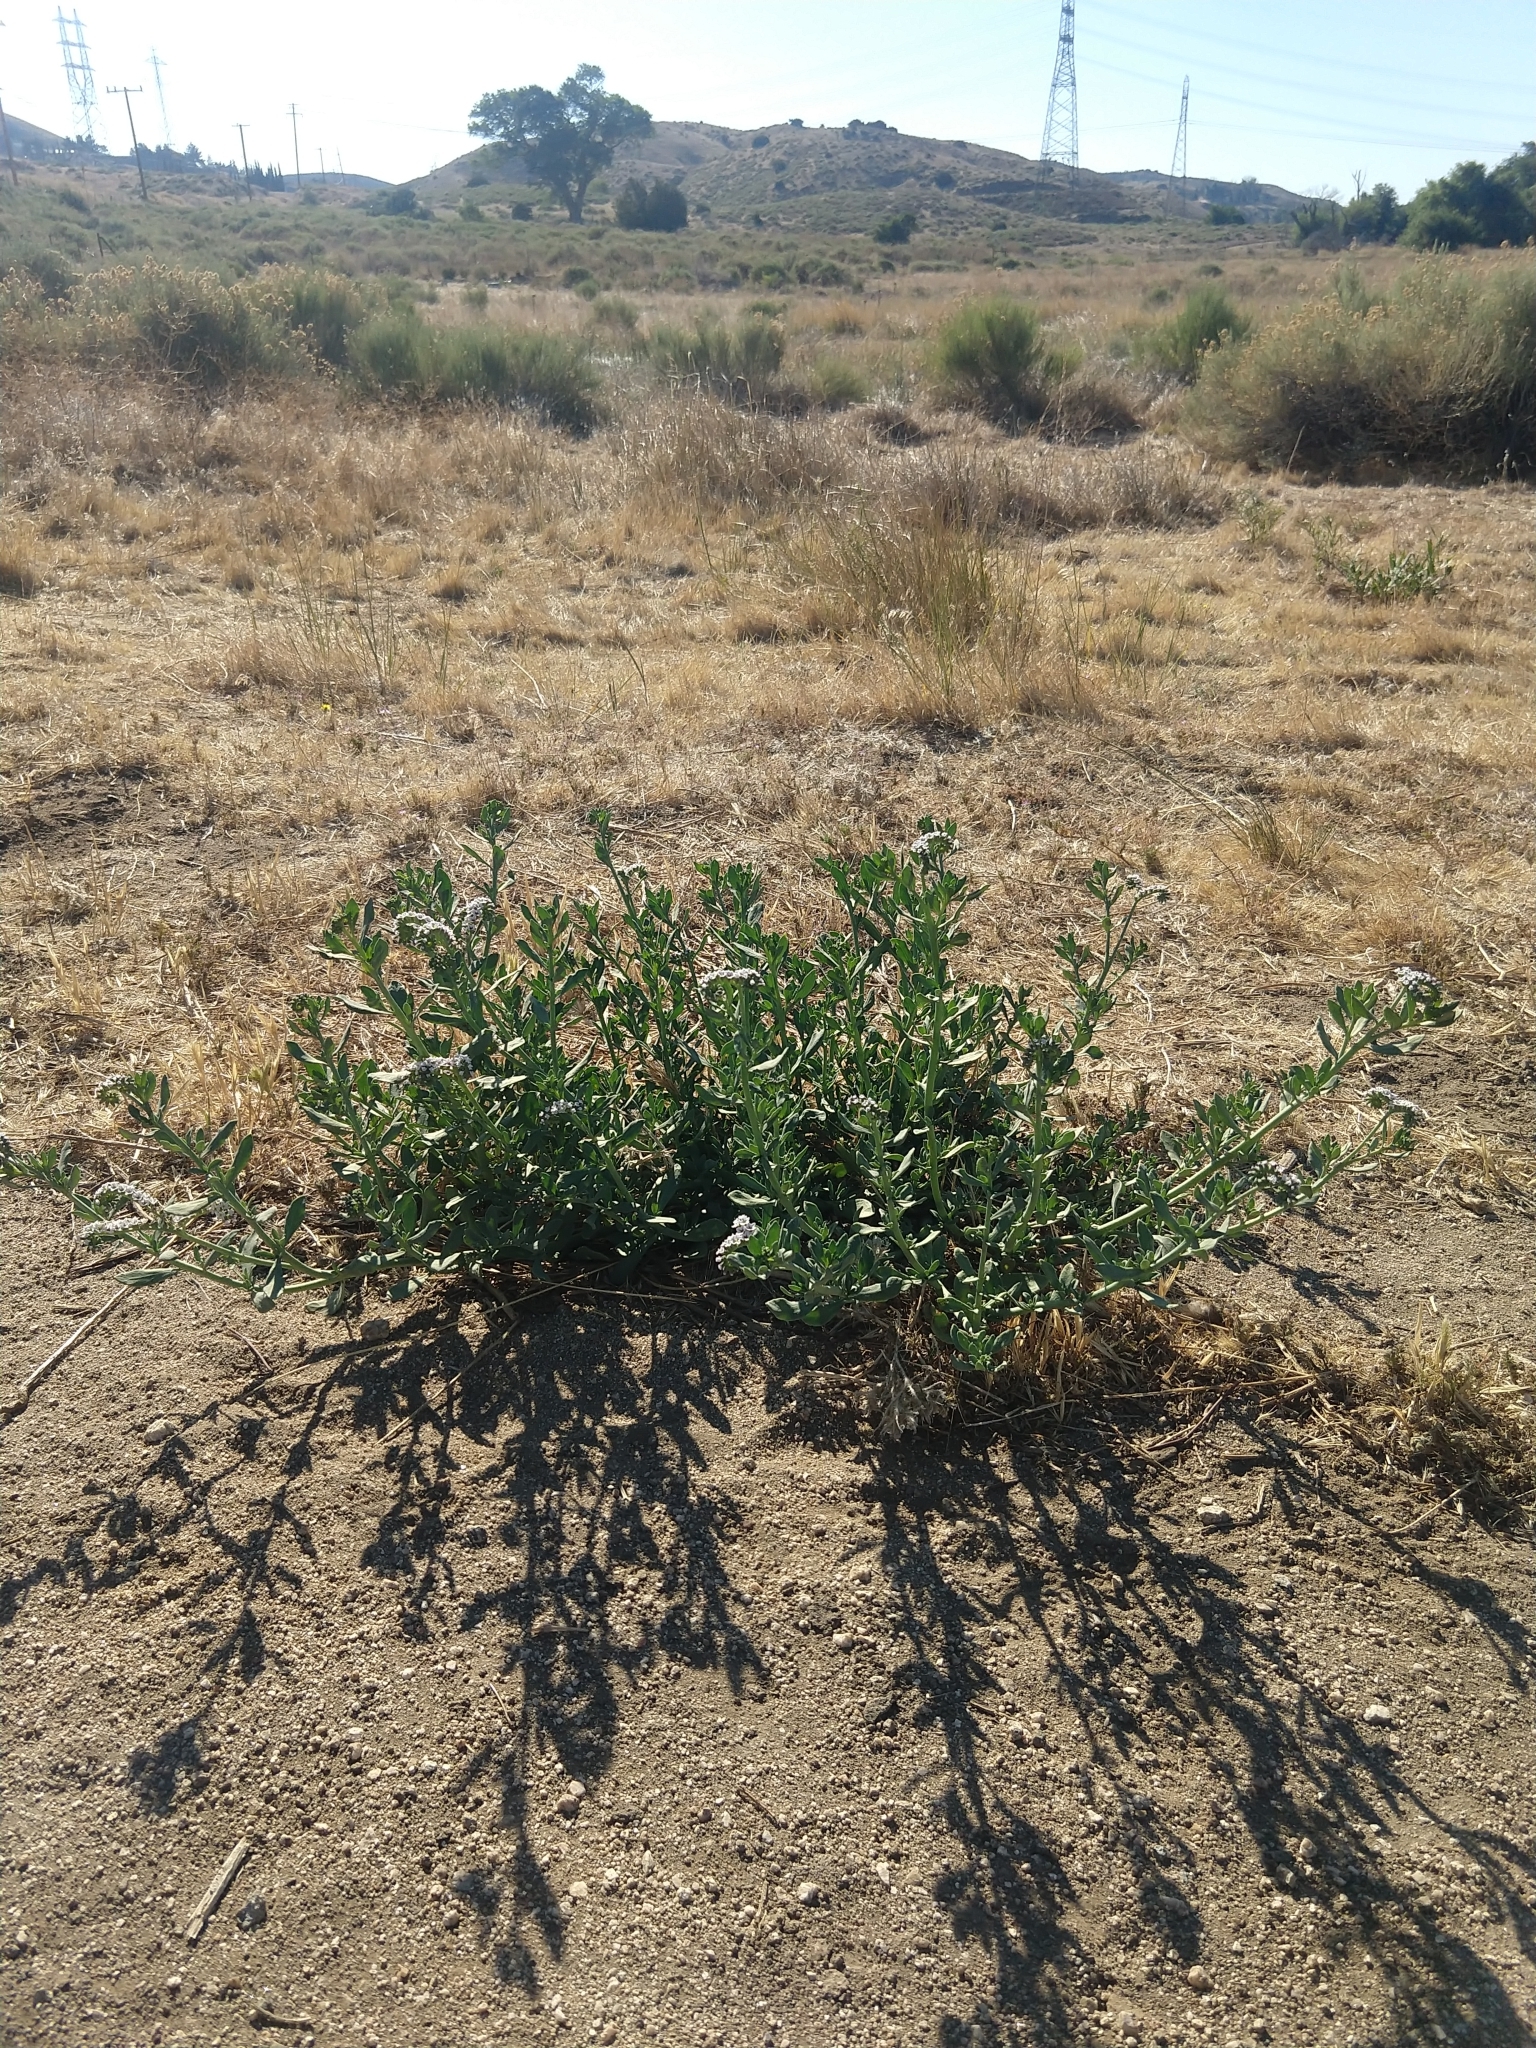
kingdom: Plantae
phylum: Tracheophyta
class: Magnoliopsida
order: Boraginales
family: Heliotropiaceae
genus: Heliotropium
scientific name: Heliotropium curassavicum
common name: Seaside heliotrope
